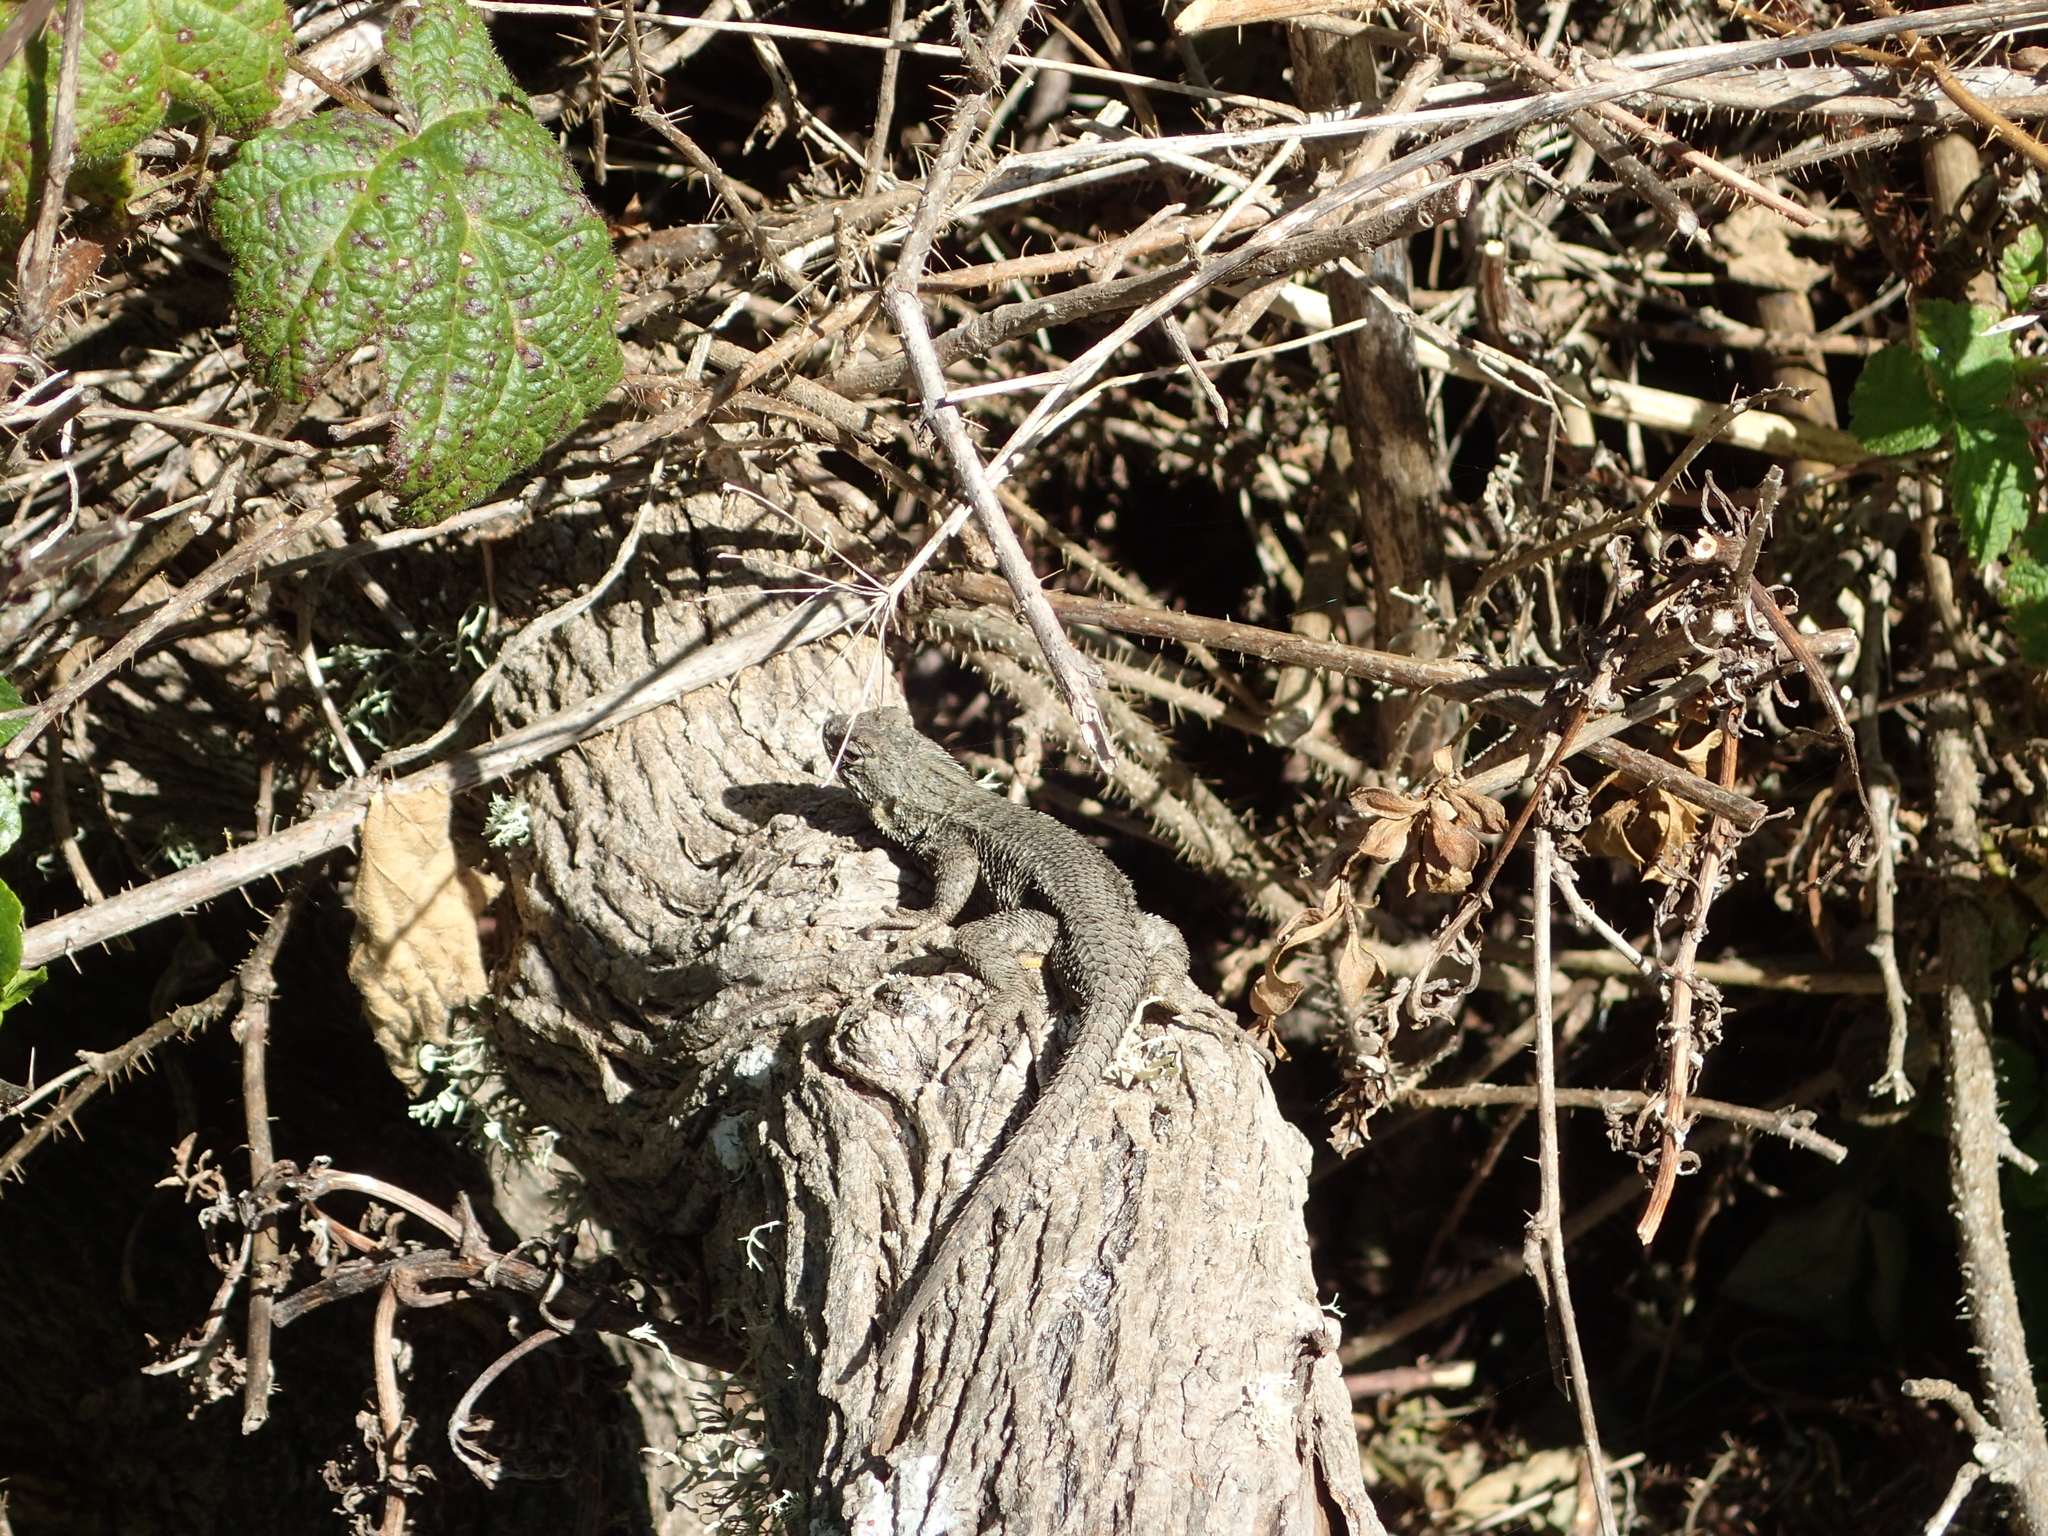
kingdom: Animalia
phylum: Chordata
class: Squamata
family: Phrynosomatidae
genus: Sceloporus
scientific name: Sceloporus occidentalis
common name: Western fence lizard
